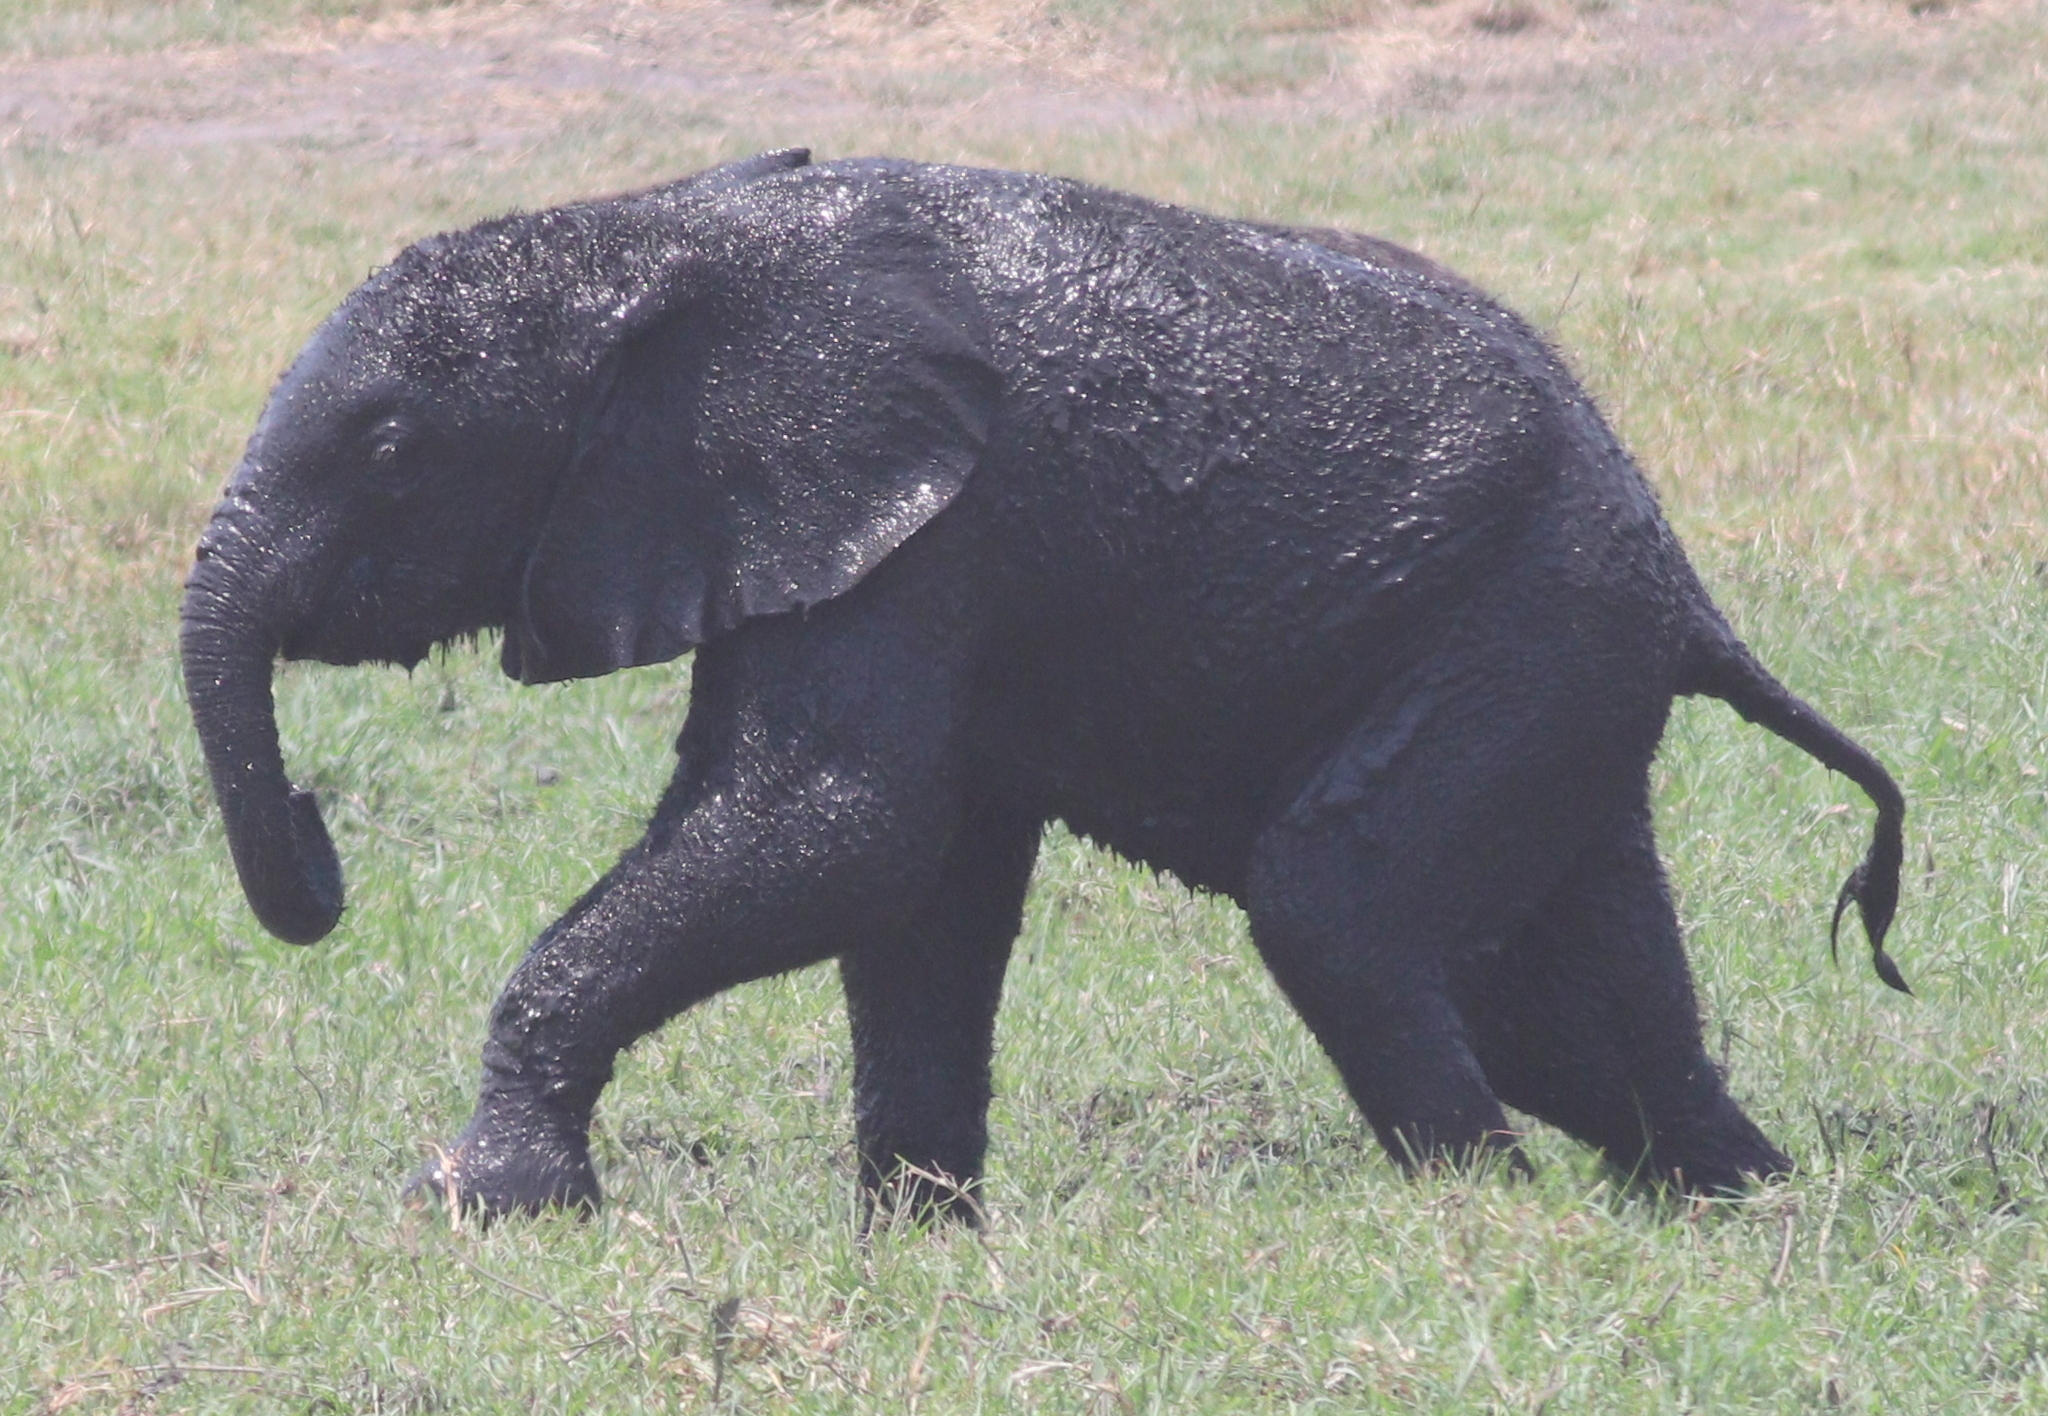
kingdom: Animalia
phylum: Chordata
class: Mammalia
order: Proboscidea
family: Elephantidae
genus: Loxodonta
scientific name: Loxodonta africana
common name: African elephant
